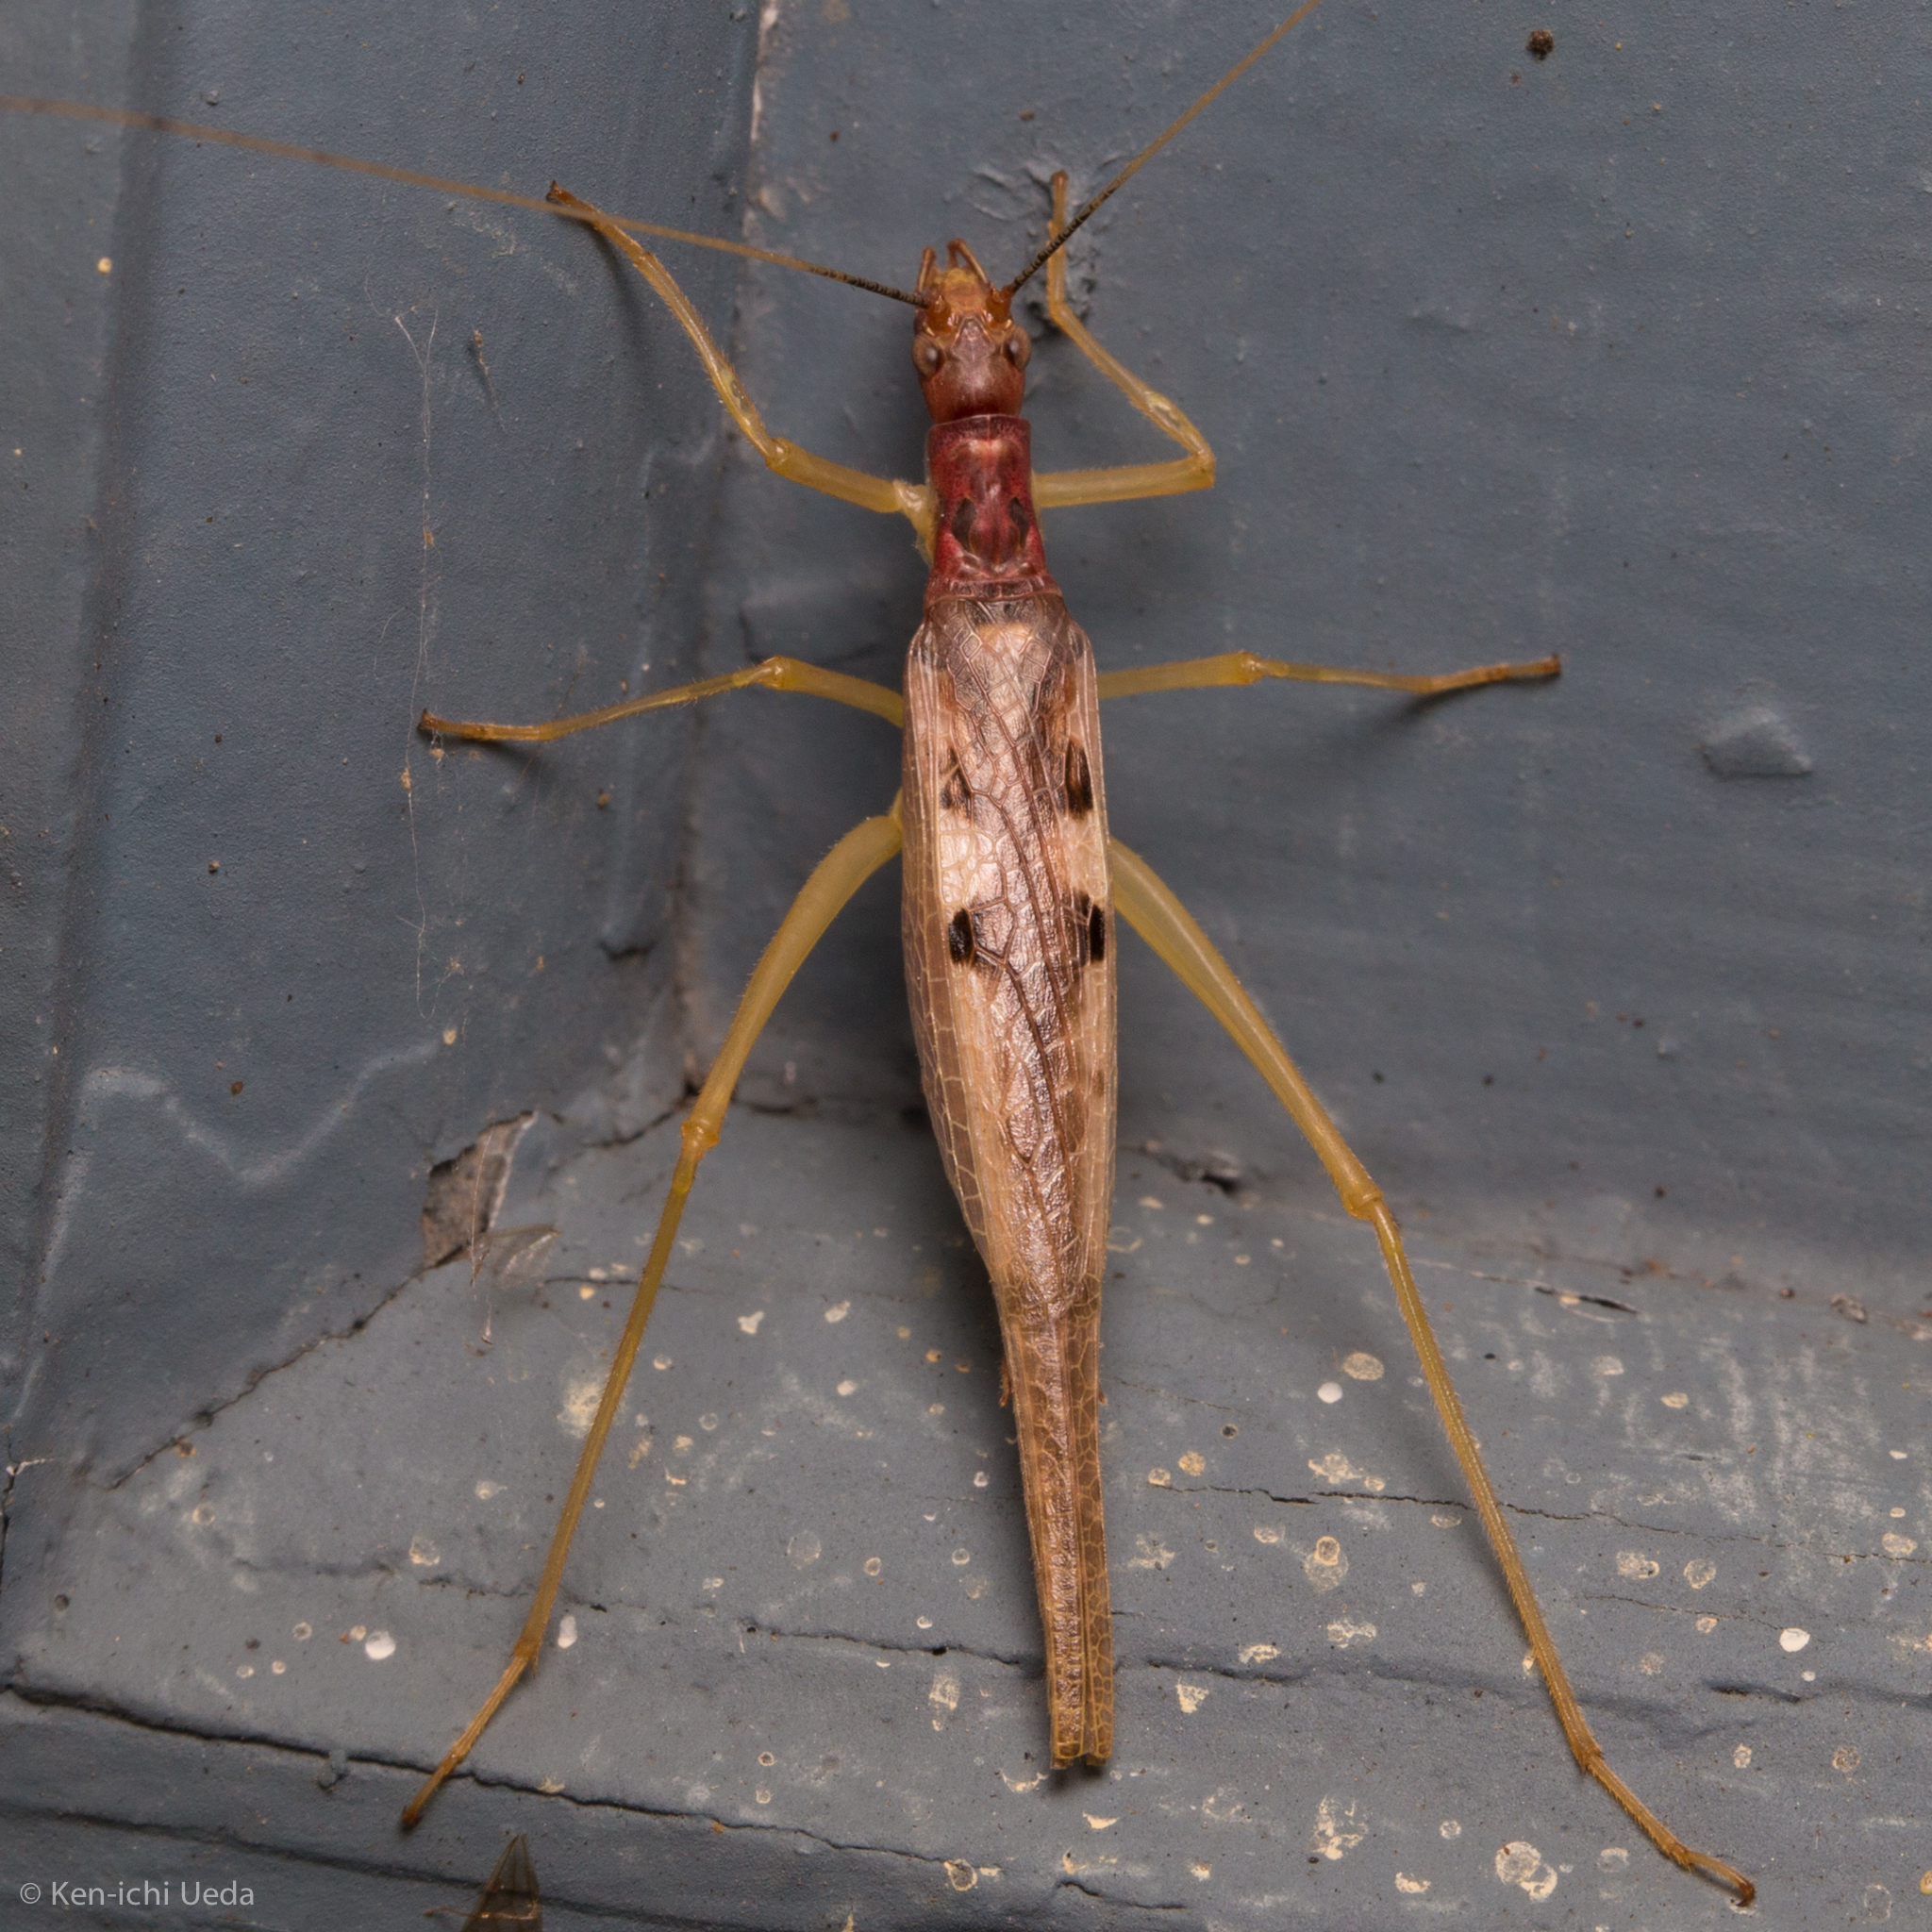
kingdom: Animalia
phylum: Arthropoda
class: Insecta
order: Orthoptera
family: Gryllidae
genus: Neoxabea
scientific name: Neoxabea bipunctata
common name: Two-spotted tree cricket
